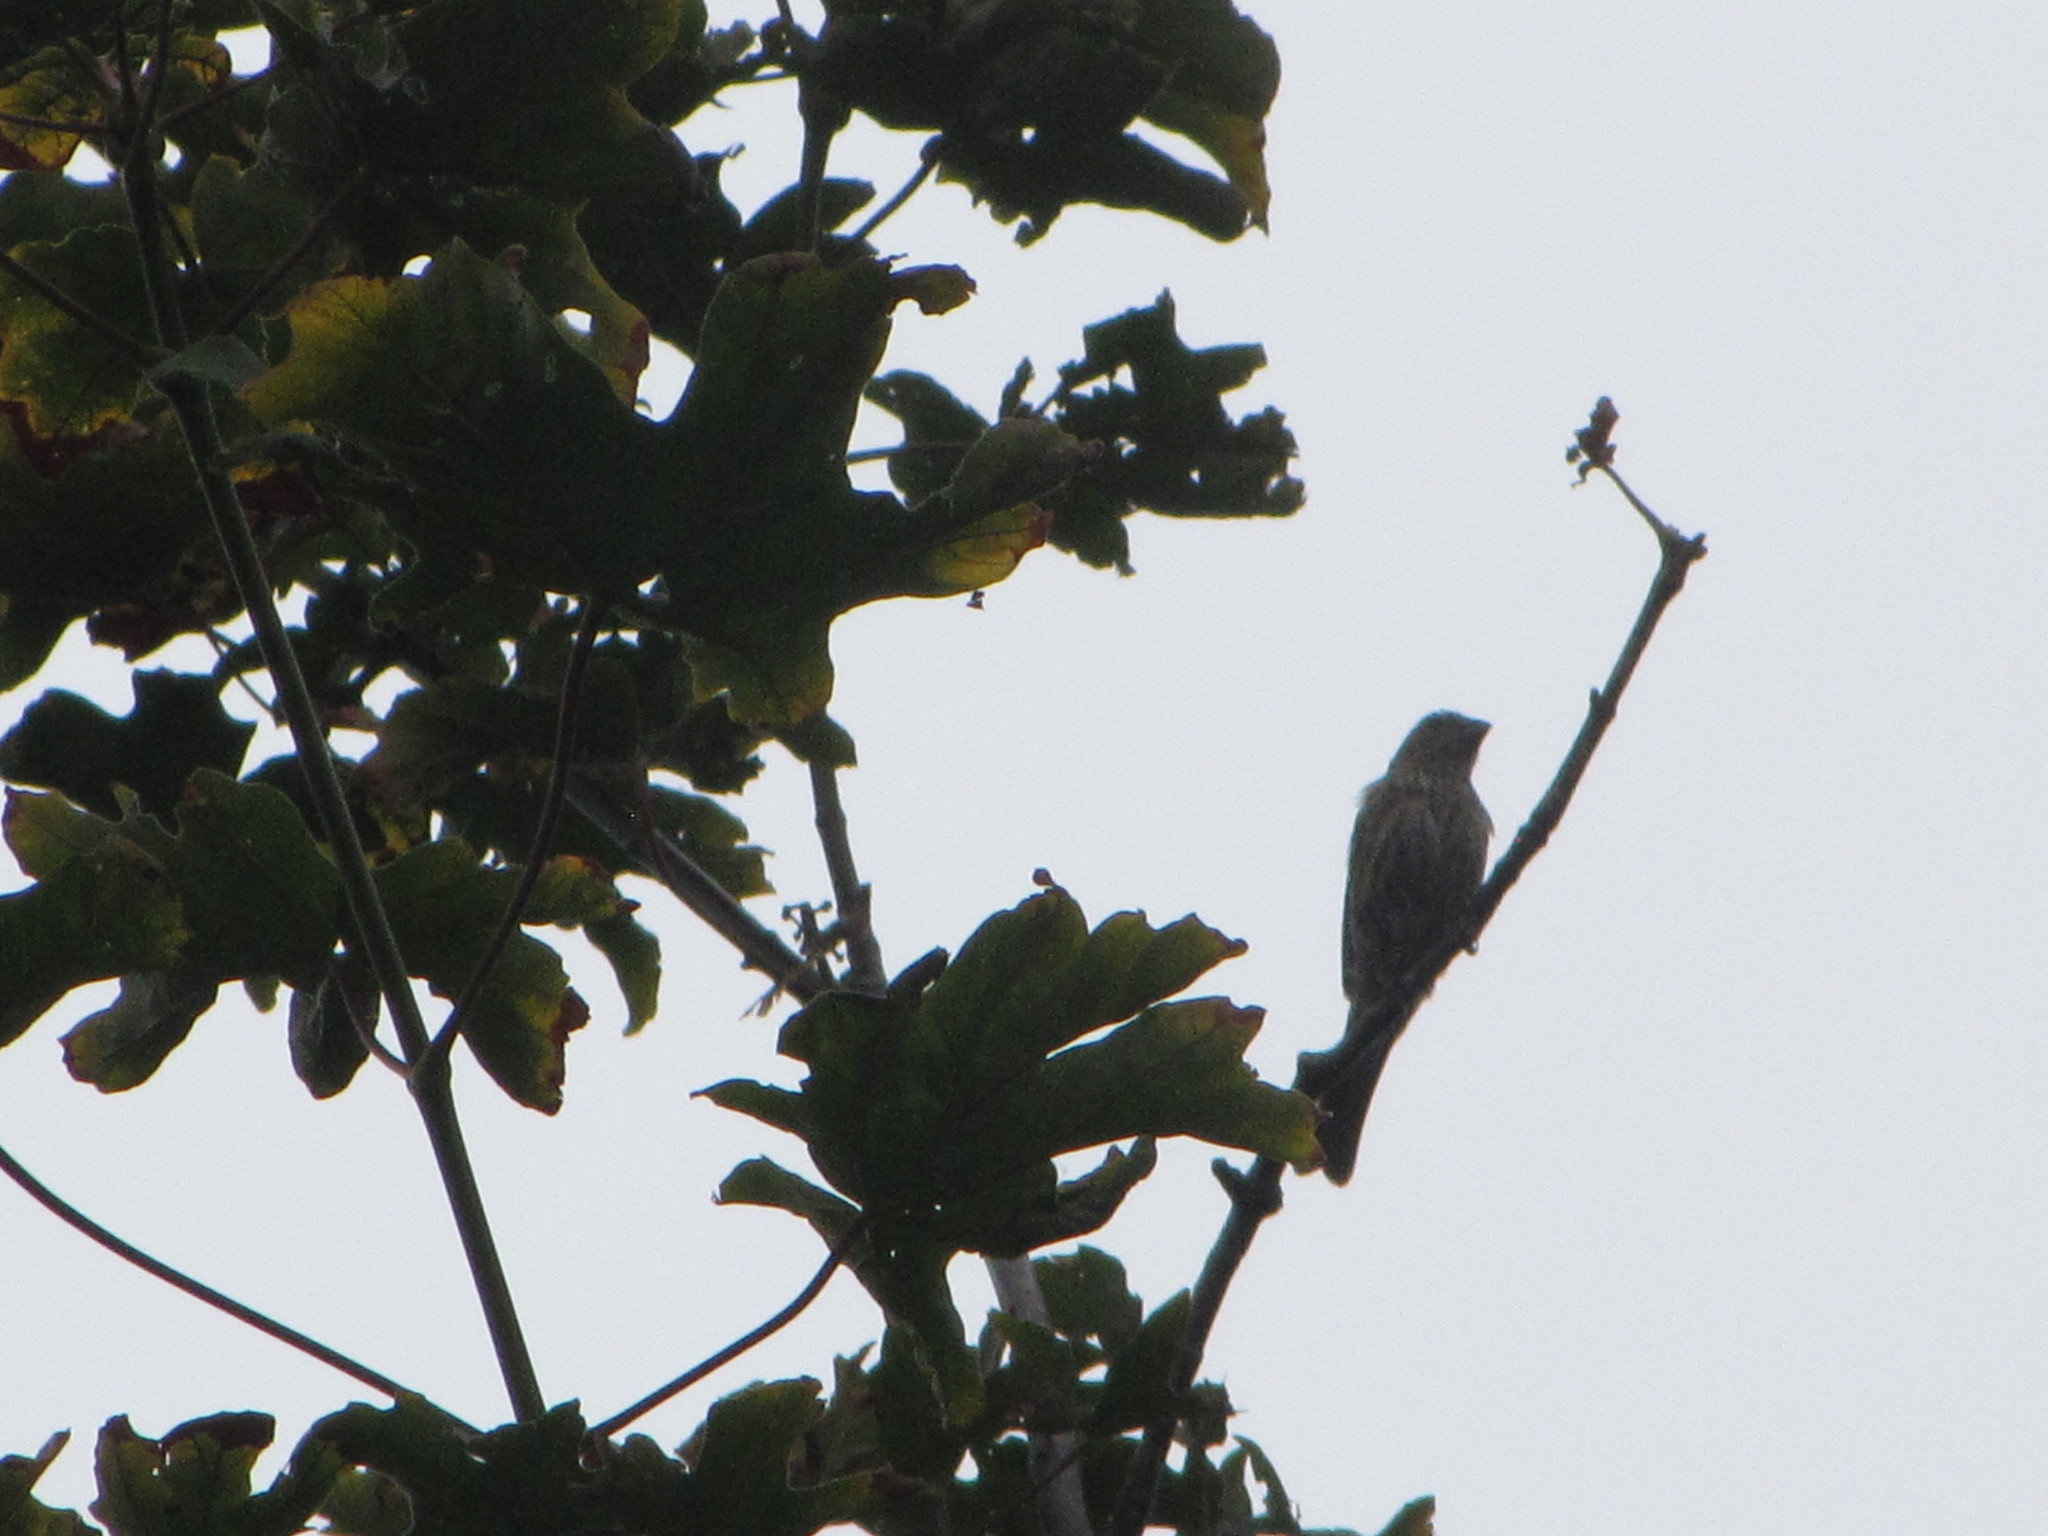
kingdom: Animalia
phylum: Chordata
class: Aves
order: Passeriformes
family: Fringillidae
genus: Haemorhous
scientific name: Haemorhous mexicanus
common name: House finch
